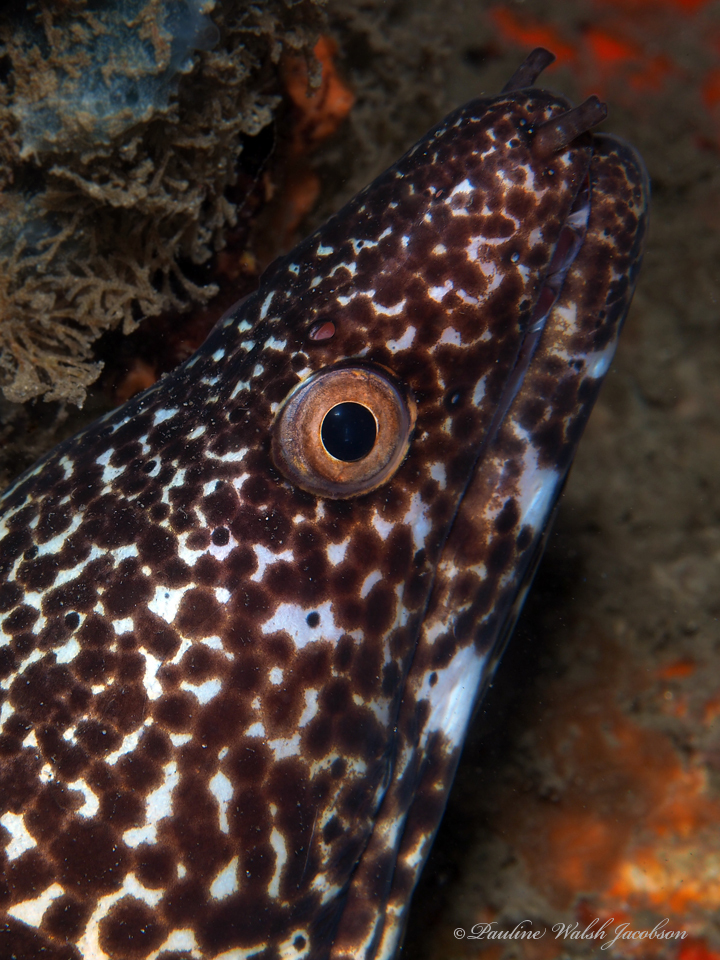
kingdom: Animalia
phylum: Chordata
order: Anguilliformes
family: Muraenidae
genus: Gymnothorax
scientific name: Gymnothorax moringa
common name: Spotted moray
